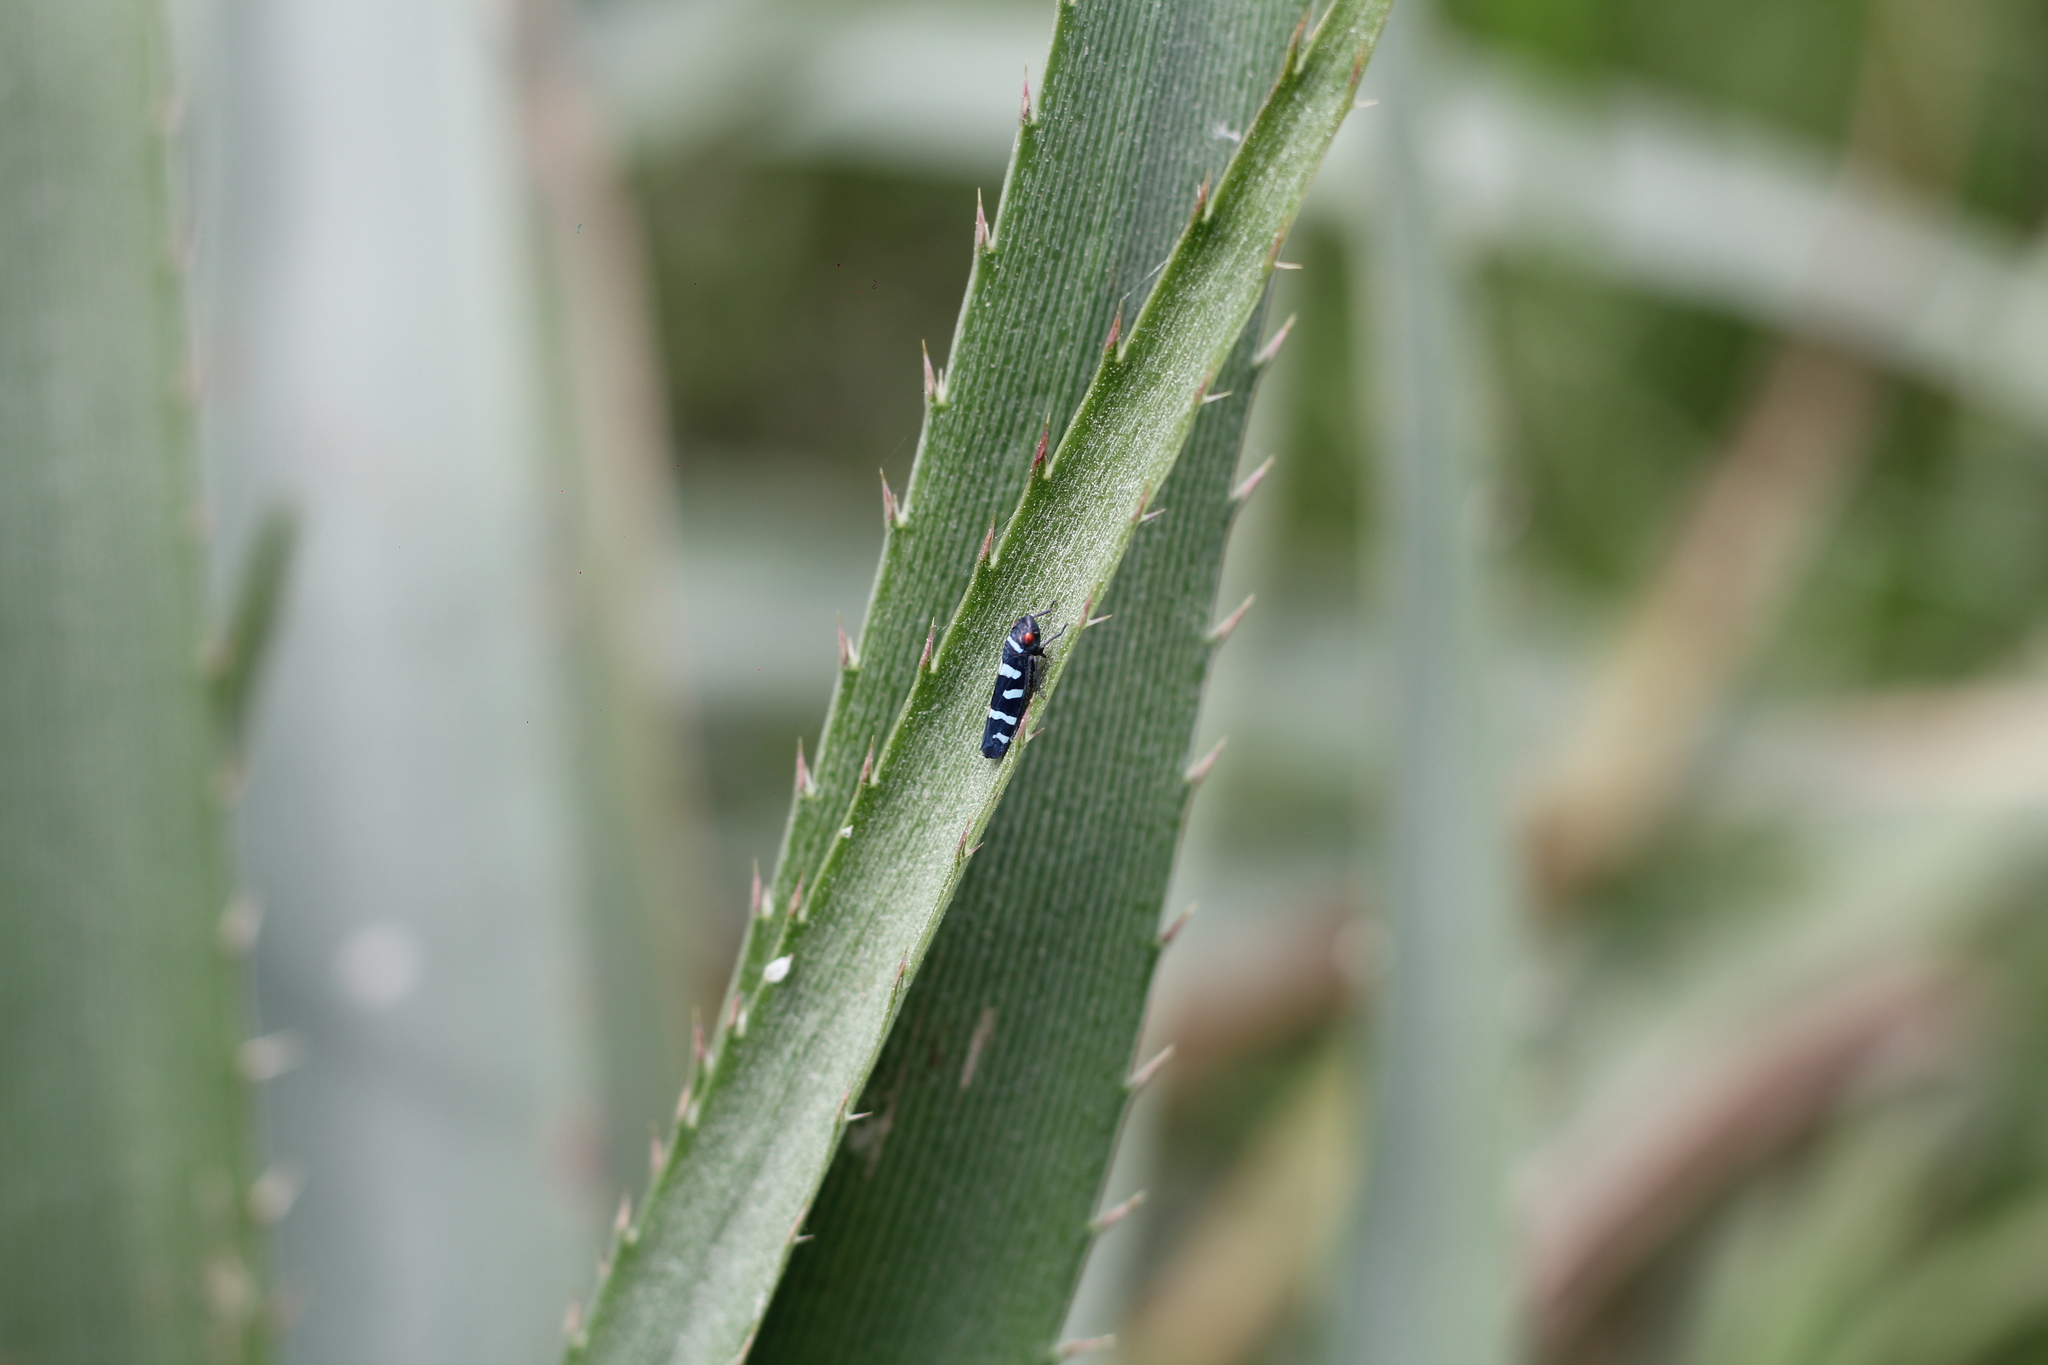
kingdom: Animalia
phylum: Arthropoda
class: Insecta
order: Hemiptera
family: Cicadellidae
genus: Balacha
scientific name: Balacha melanocephala
